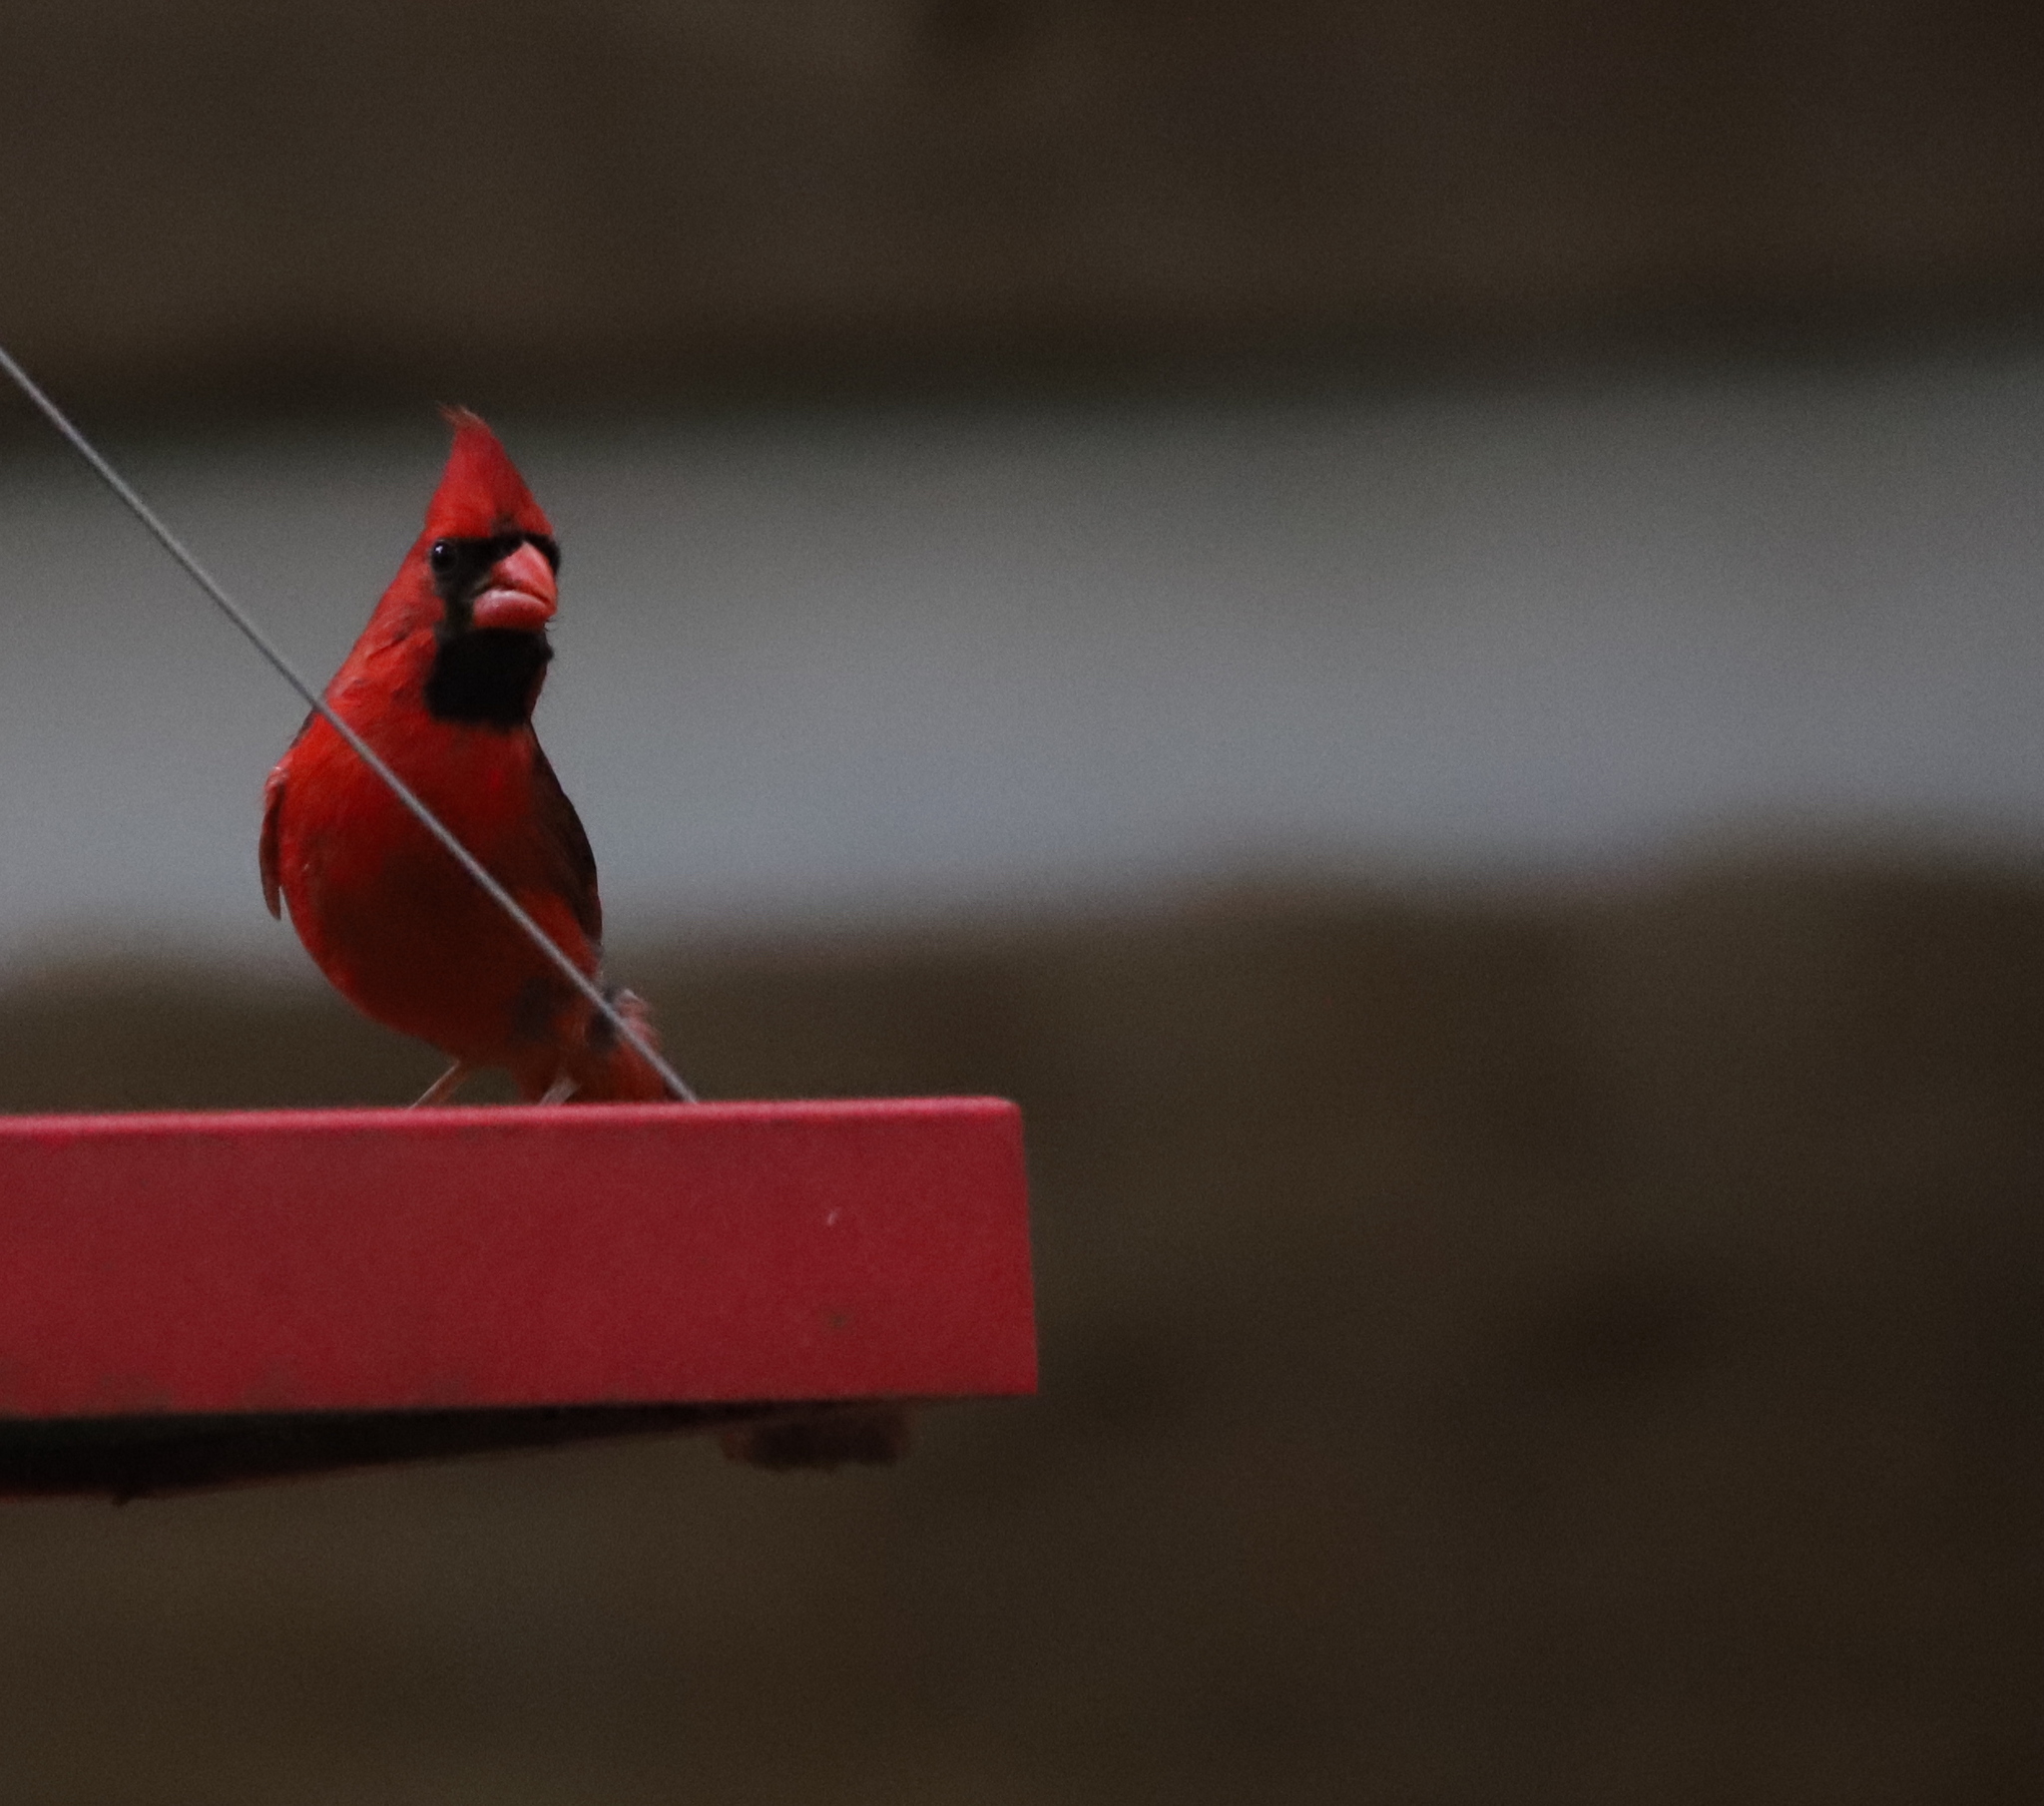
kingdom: Animalia
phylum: Chordata
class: Aves
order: Passeriformes
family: Cardinalidae
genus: Cardinalis
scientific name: Cardinalis cardinalis
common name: Northern cardinal
